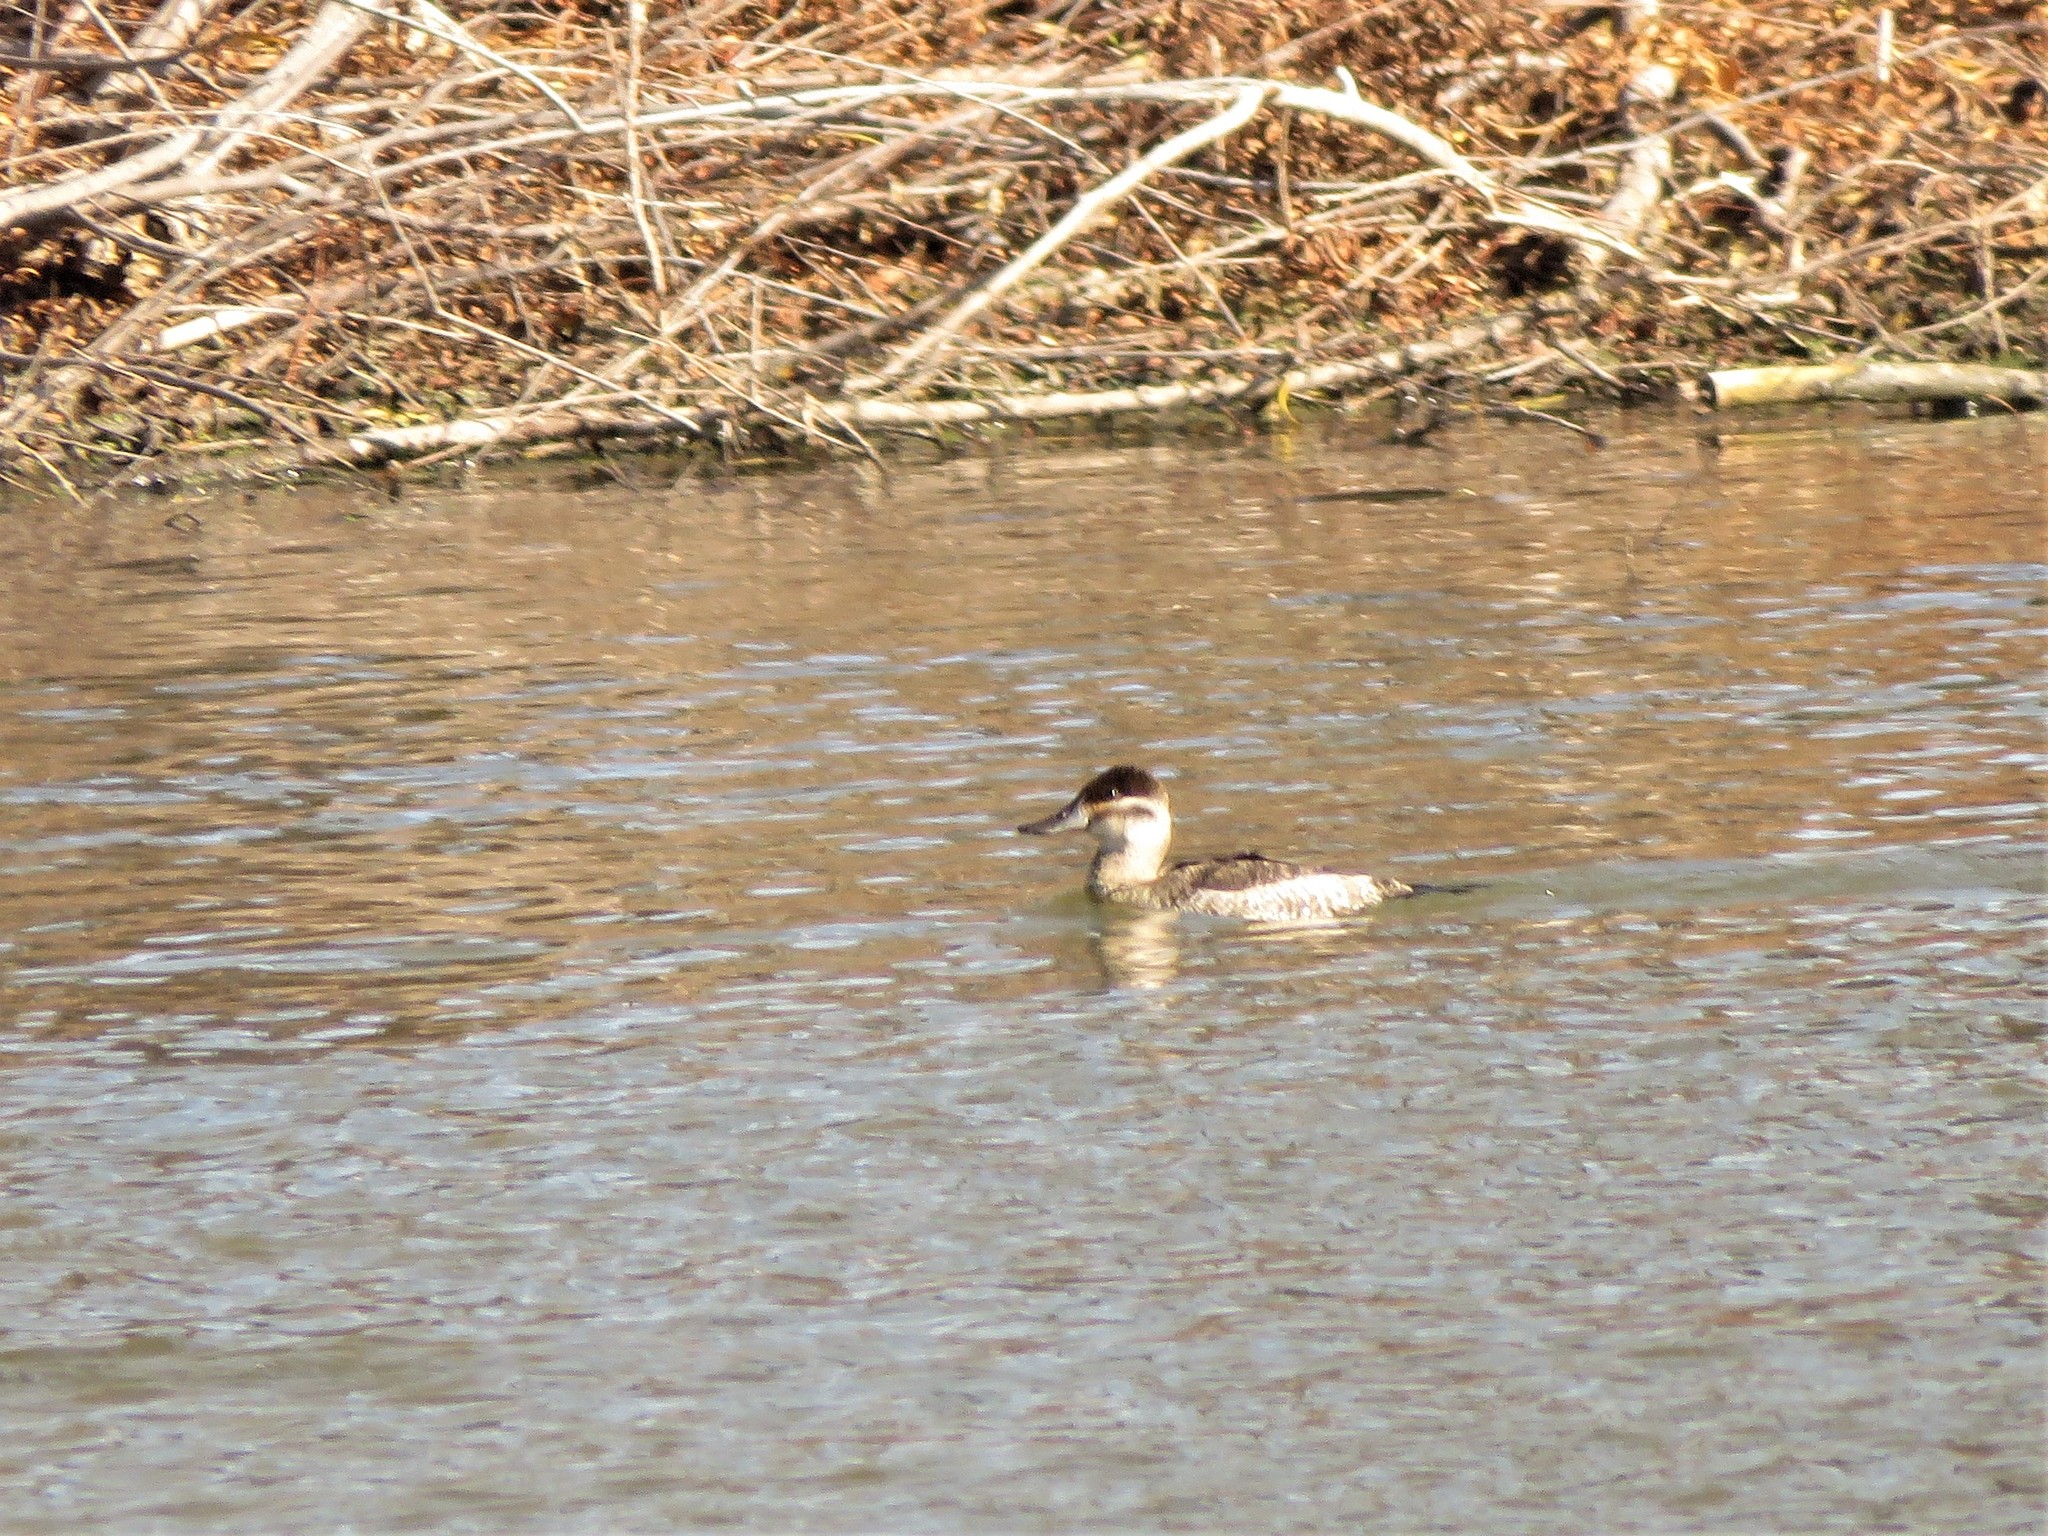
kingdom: Animalia
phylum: Chordata
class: Aves
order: Anseriformes
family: Anatidae
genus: Oxyura
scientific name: Oxyura jamaicensis
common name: Ruddy duck
